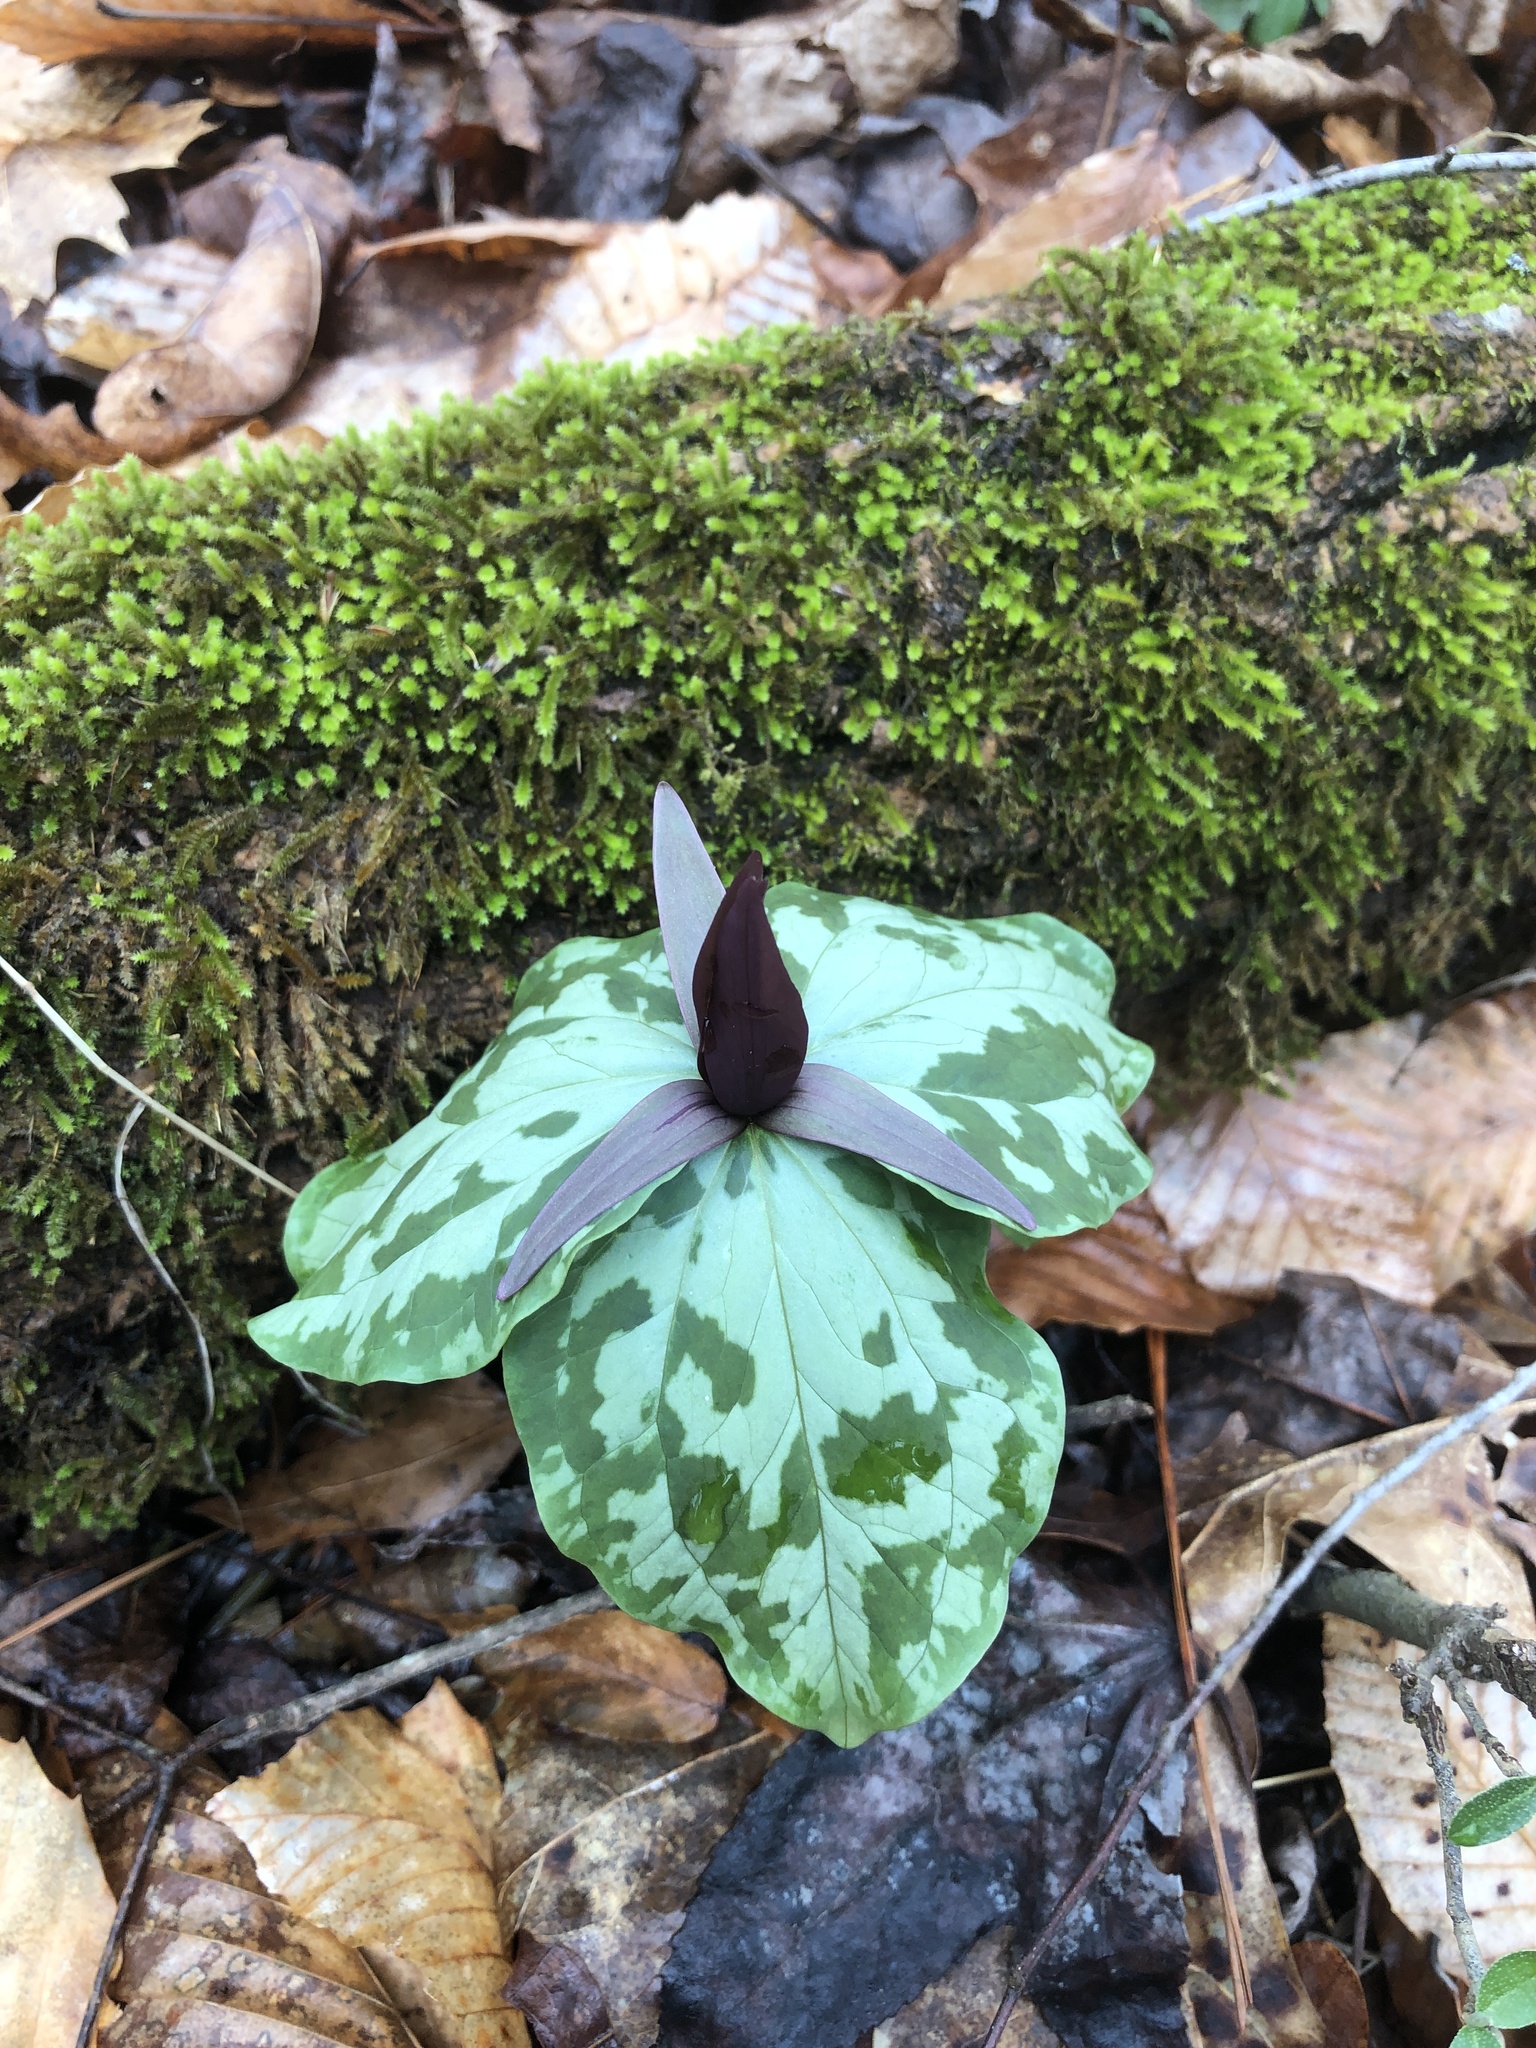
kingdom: Plantae
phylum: Tracheophyta
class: Liliopsida
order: Liliales
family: Melanthiaceae
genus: Trillium
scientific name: Trillium cuneatum
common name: Cuneate trillium
